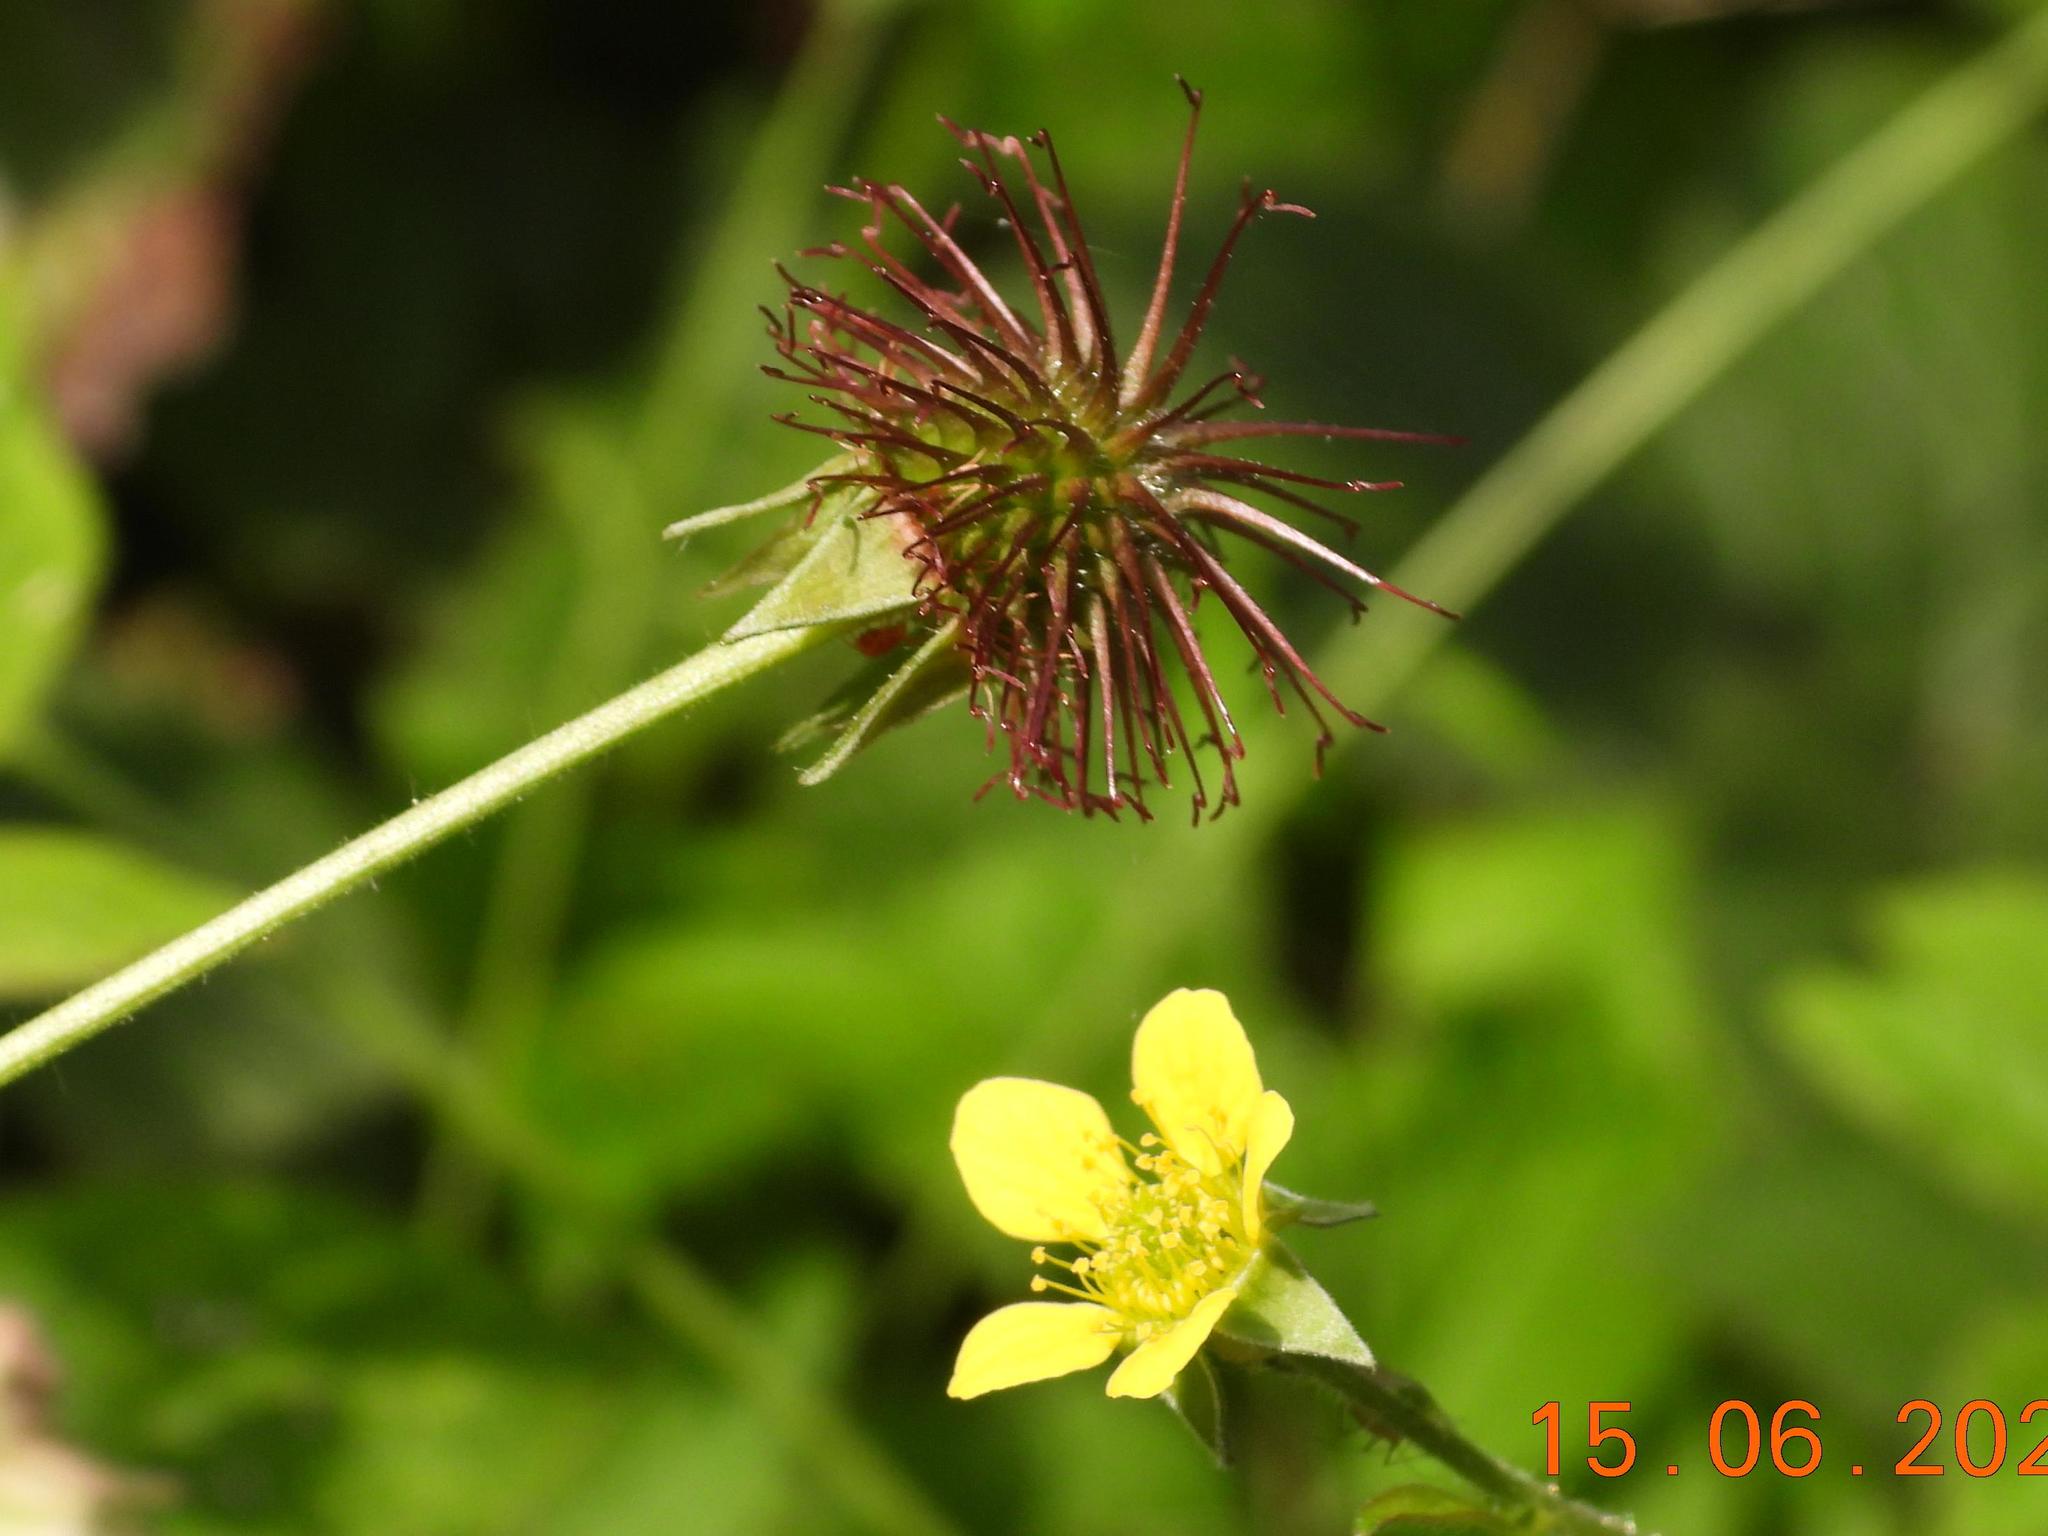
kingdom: Plantae
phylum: Tracheophyta
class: Magnoliopsida
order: Rosales
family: Rosaceae
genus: Geum
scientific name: Geum urbanum
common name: Wood avens
